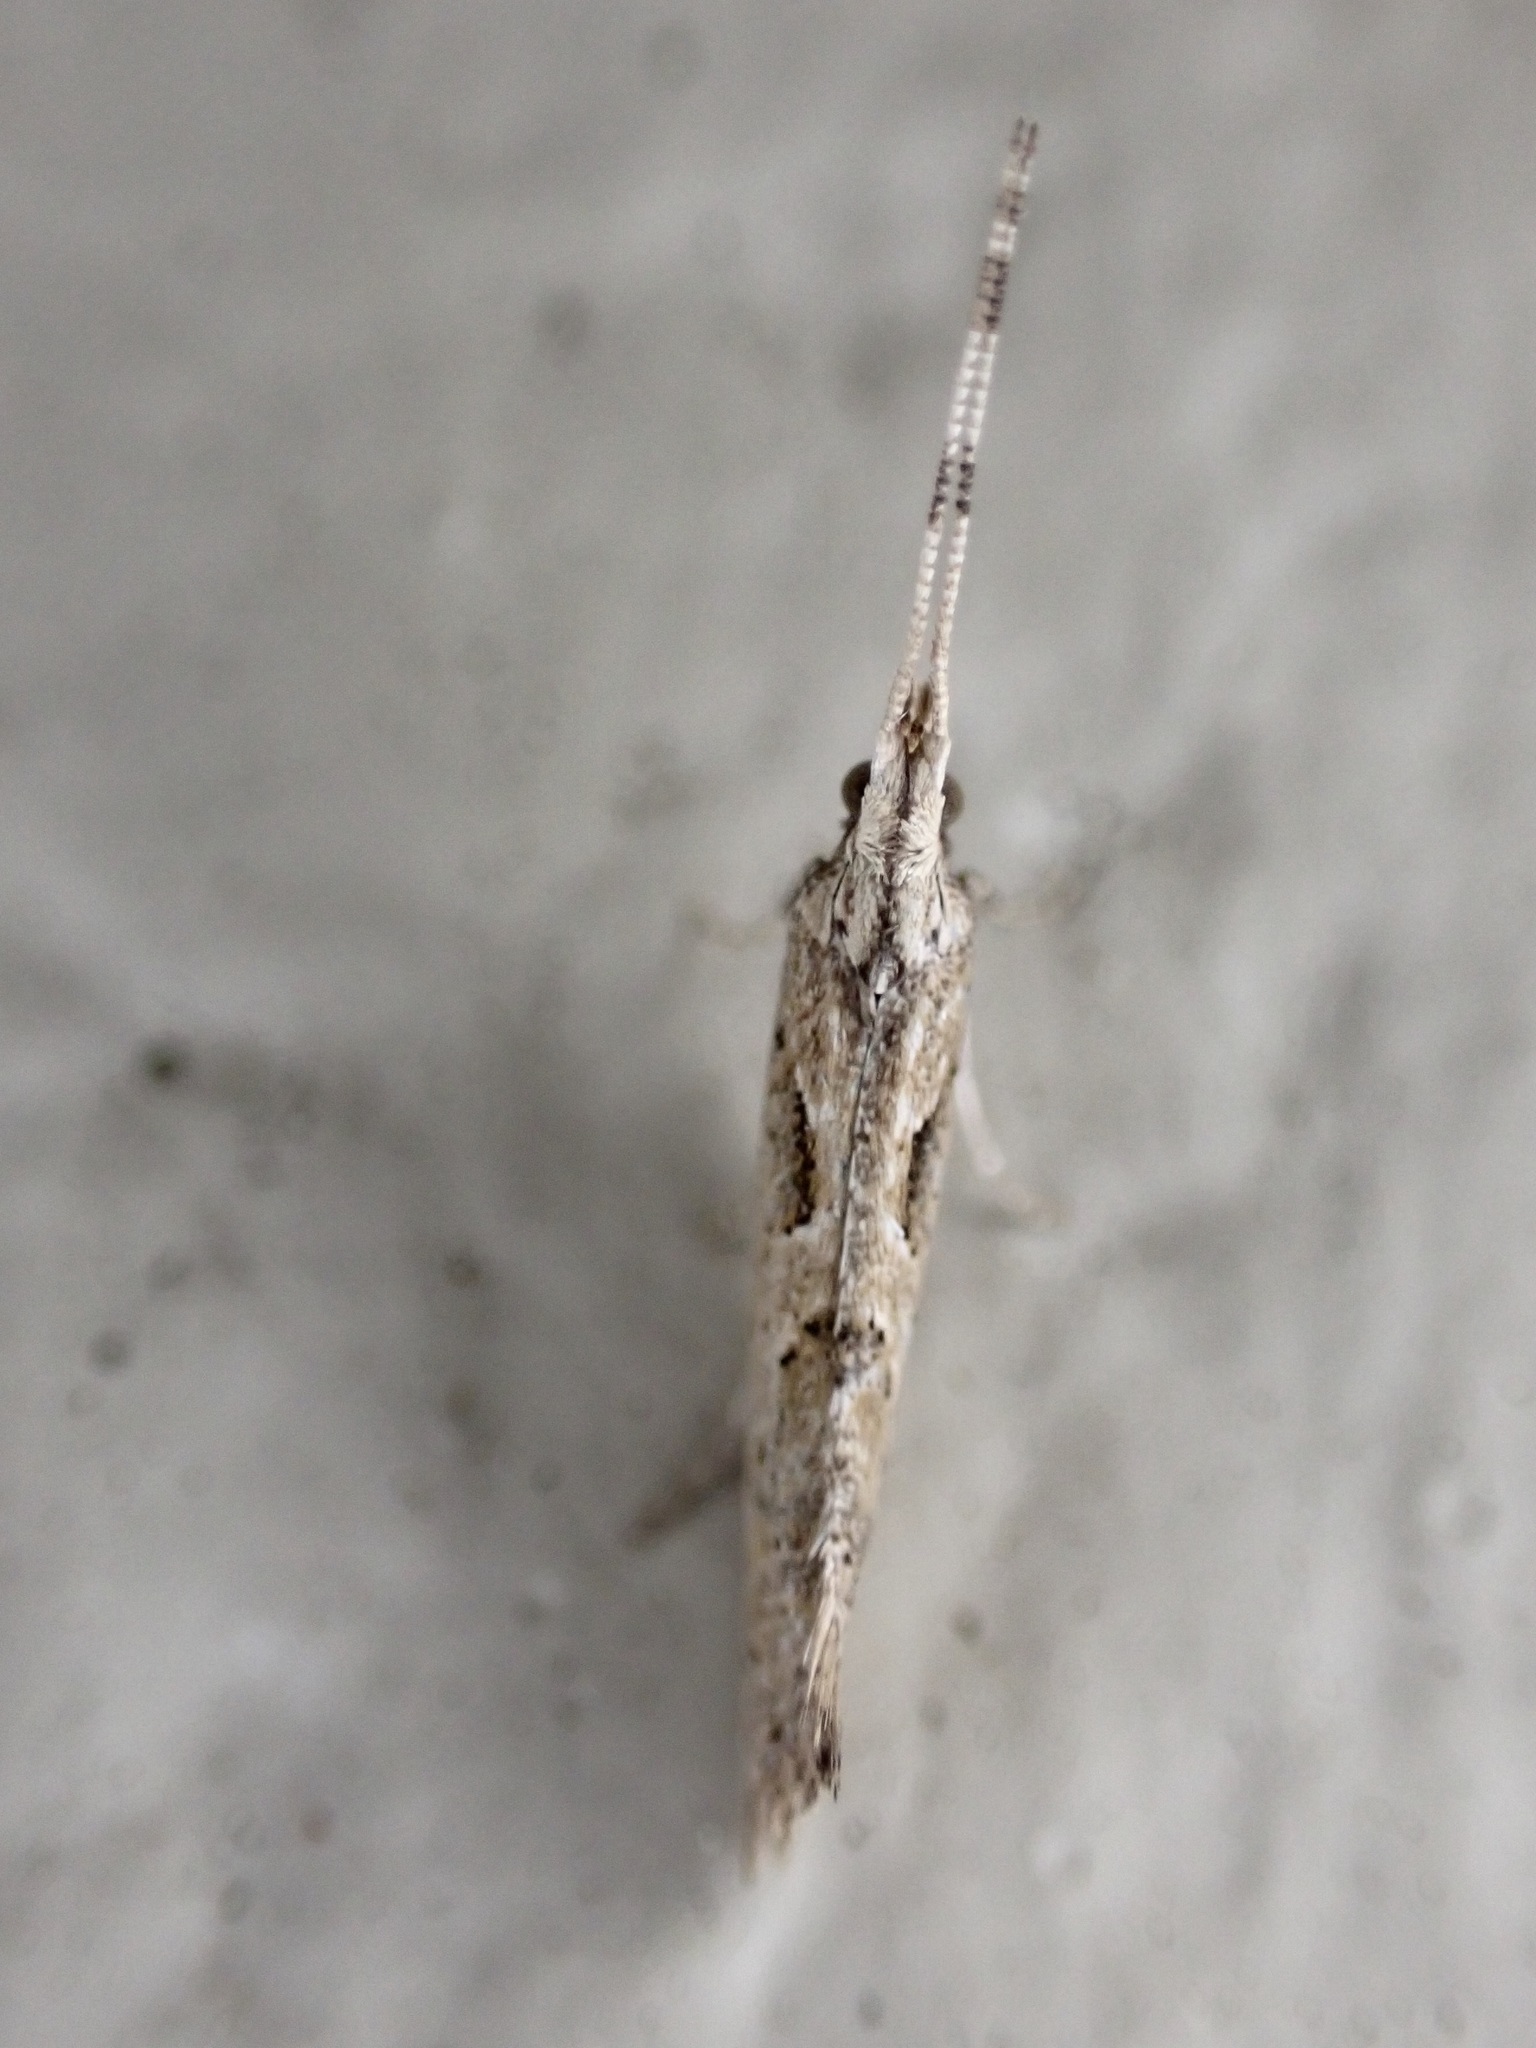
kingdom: Animalia
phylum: Arthropoda
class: Insecta
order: Lepidoptera
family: Plutellidae
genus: Leuroperna
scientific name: Leuroperna sera
